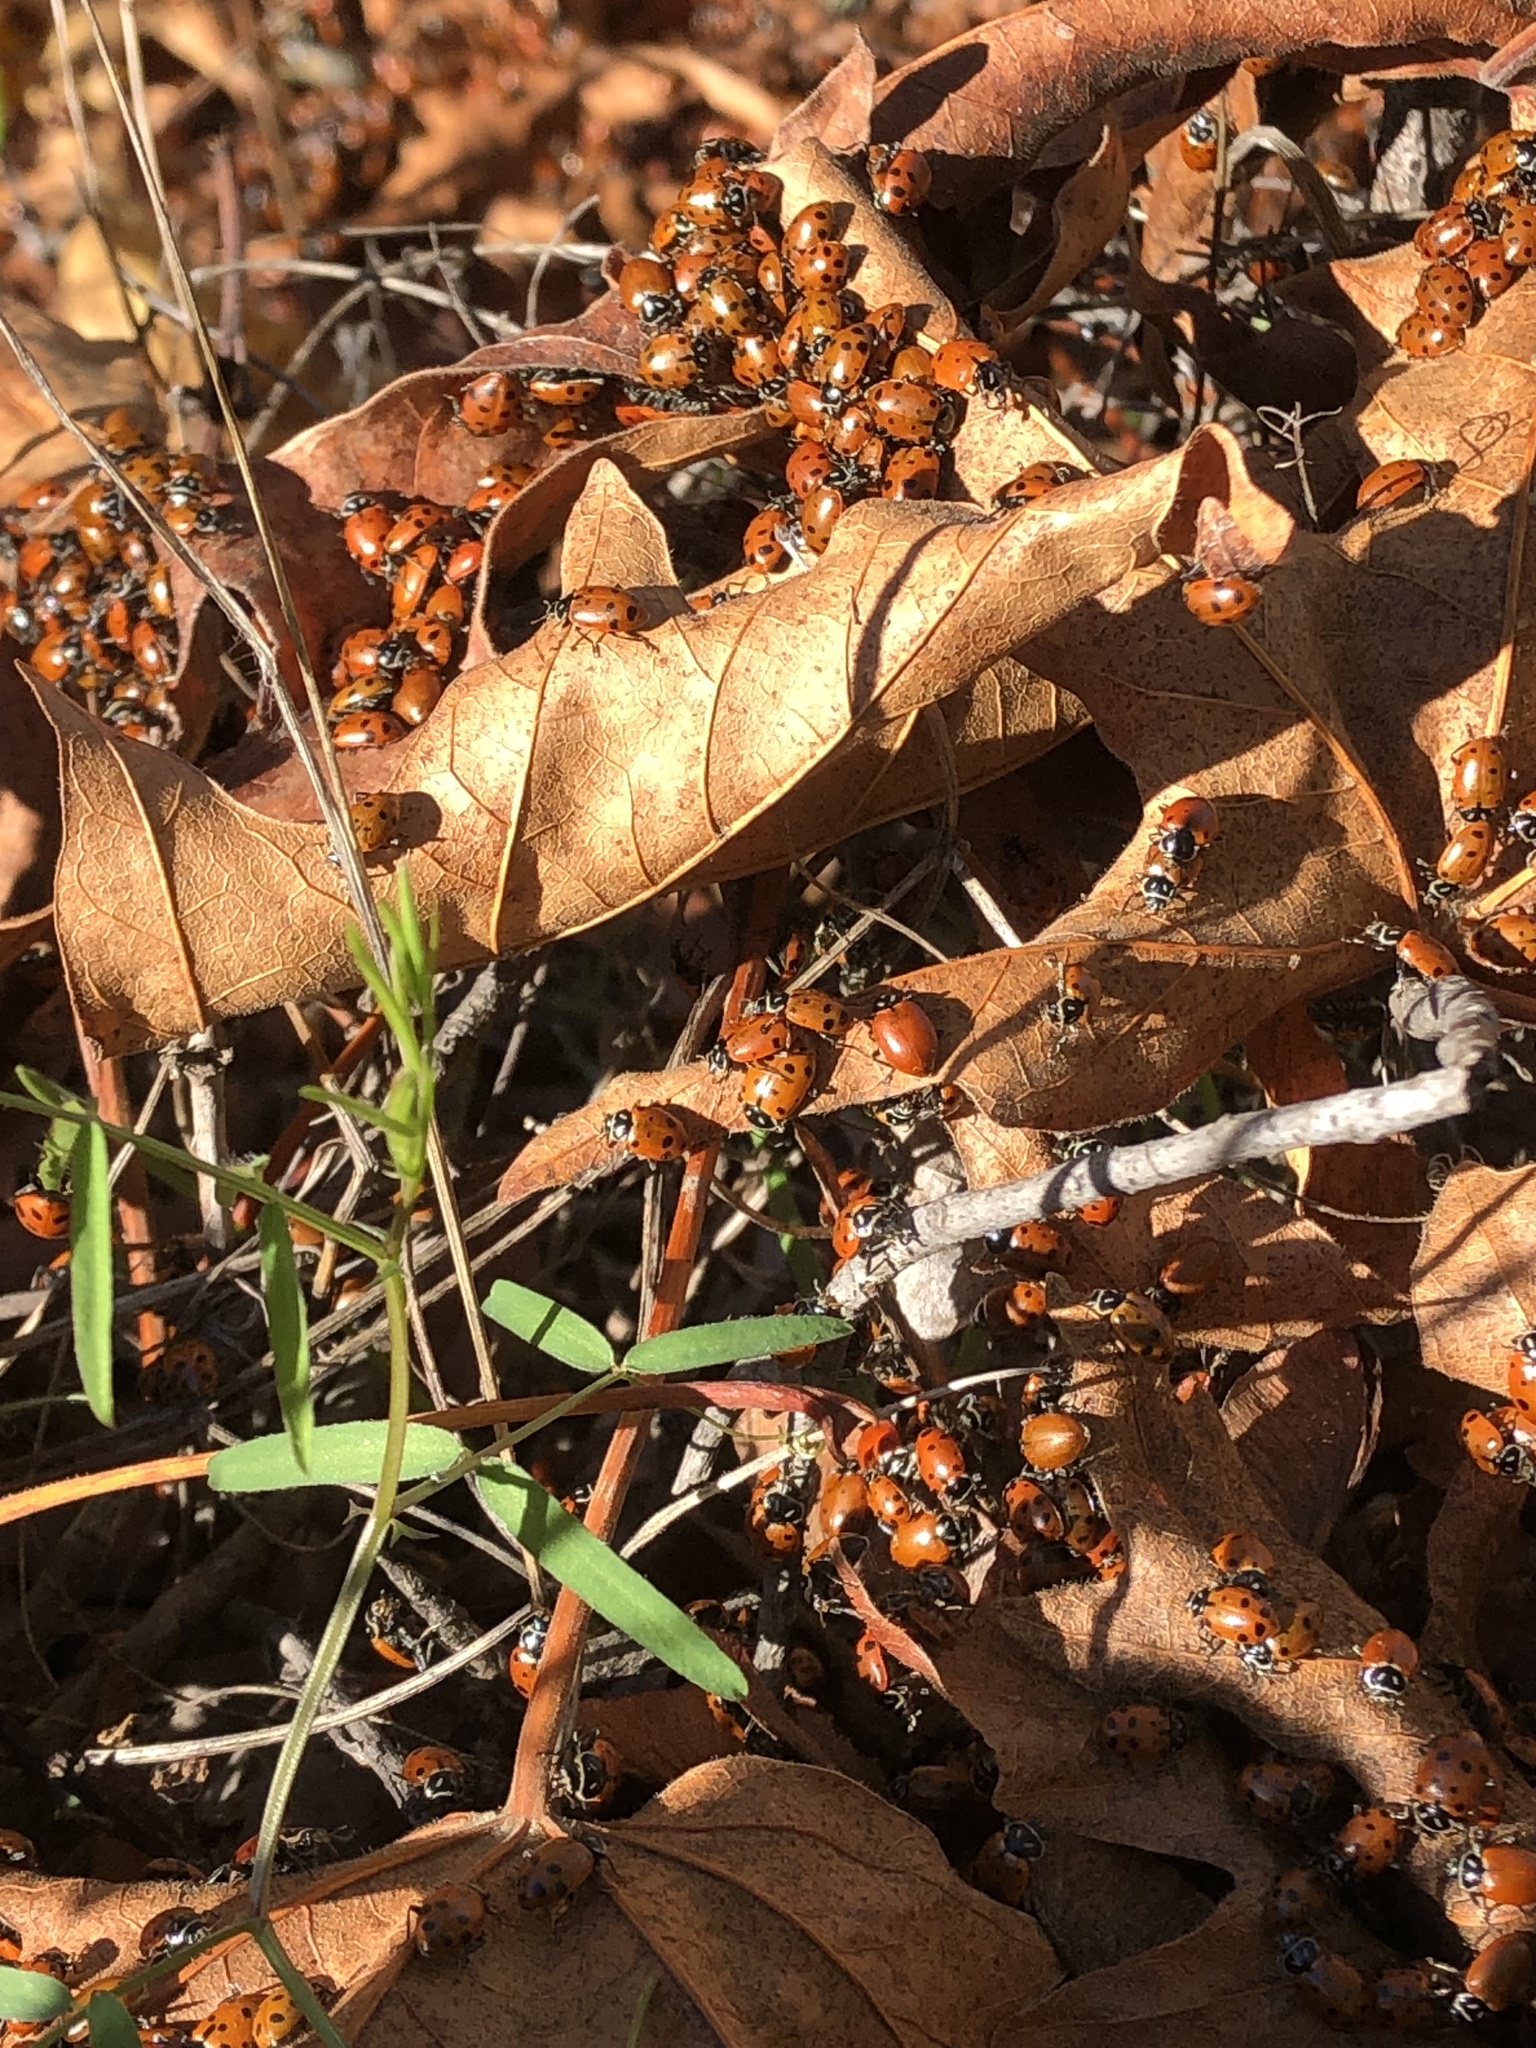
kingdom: Animalia
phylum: Arthropoda
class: Insecta
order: Coleoptera
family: Coccinellidae
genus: Hippodamia
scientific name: Hippodamia convergens
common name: Convergent lady beetle
